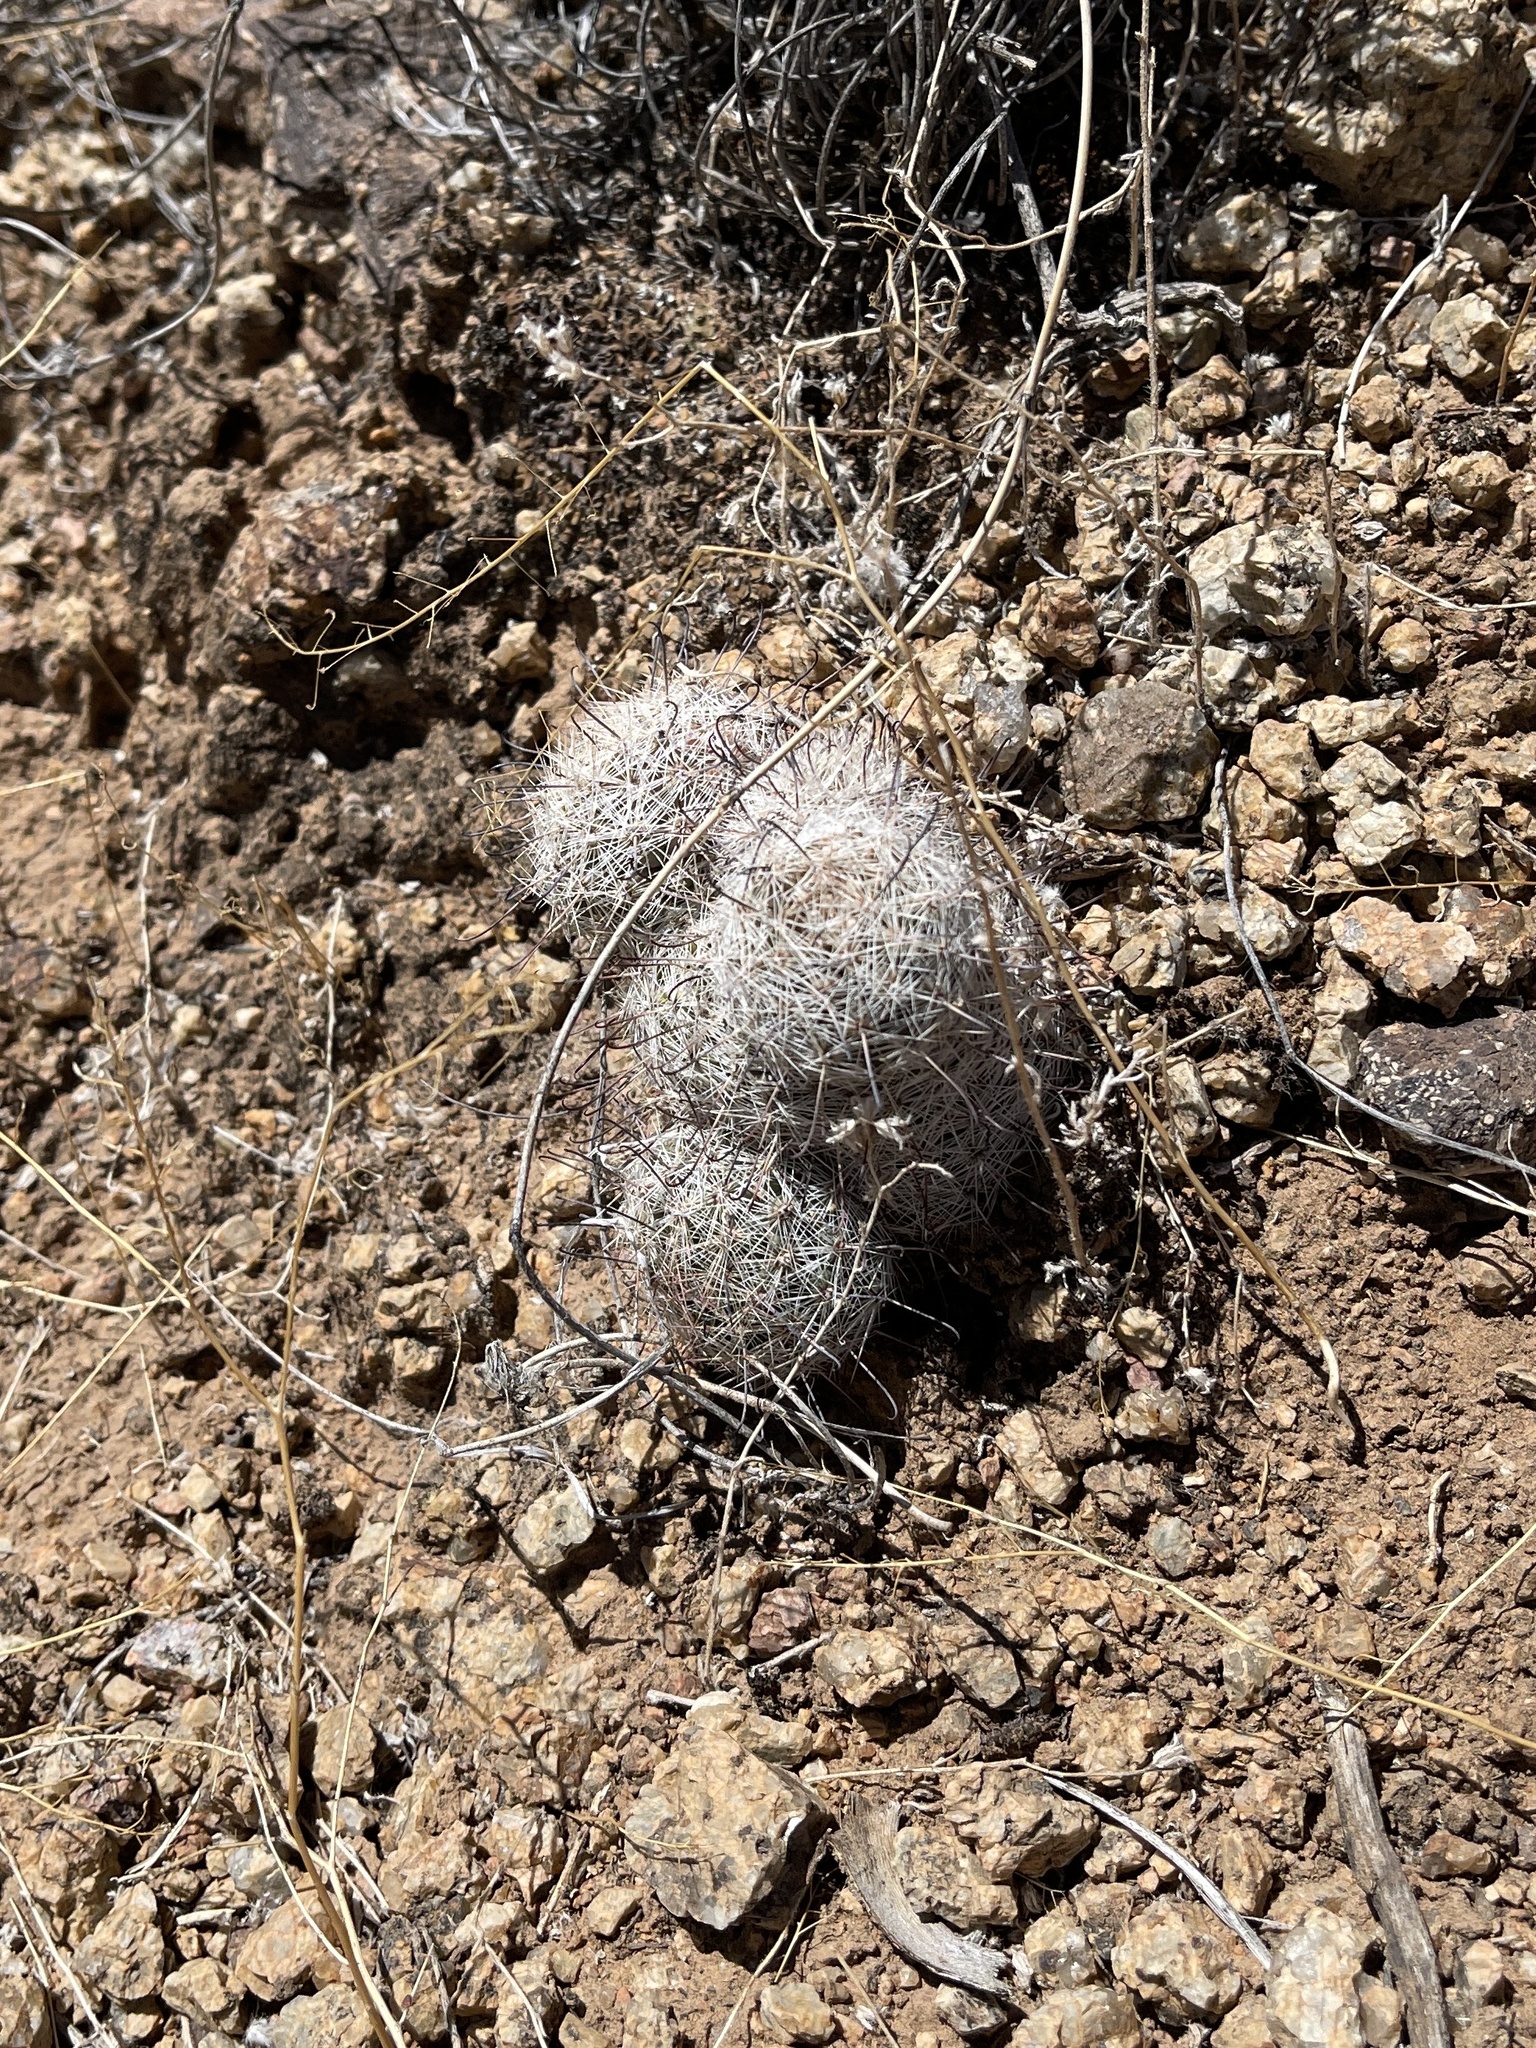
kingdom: Plantae
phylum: Tracheophyta
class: Magnoliopsida
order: Caryophyllales
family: Cactaceae
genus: Cochemiea
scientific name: Cochemiea grahamii
